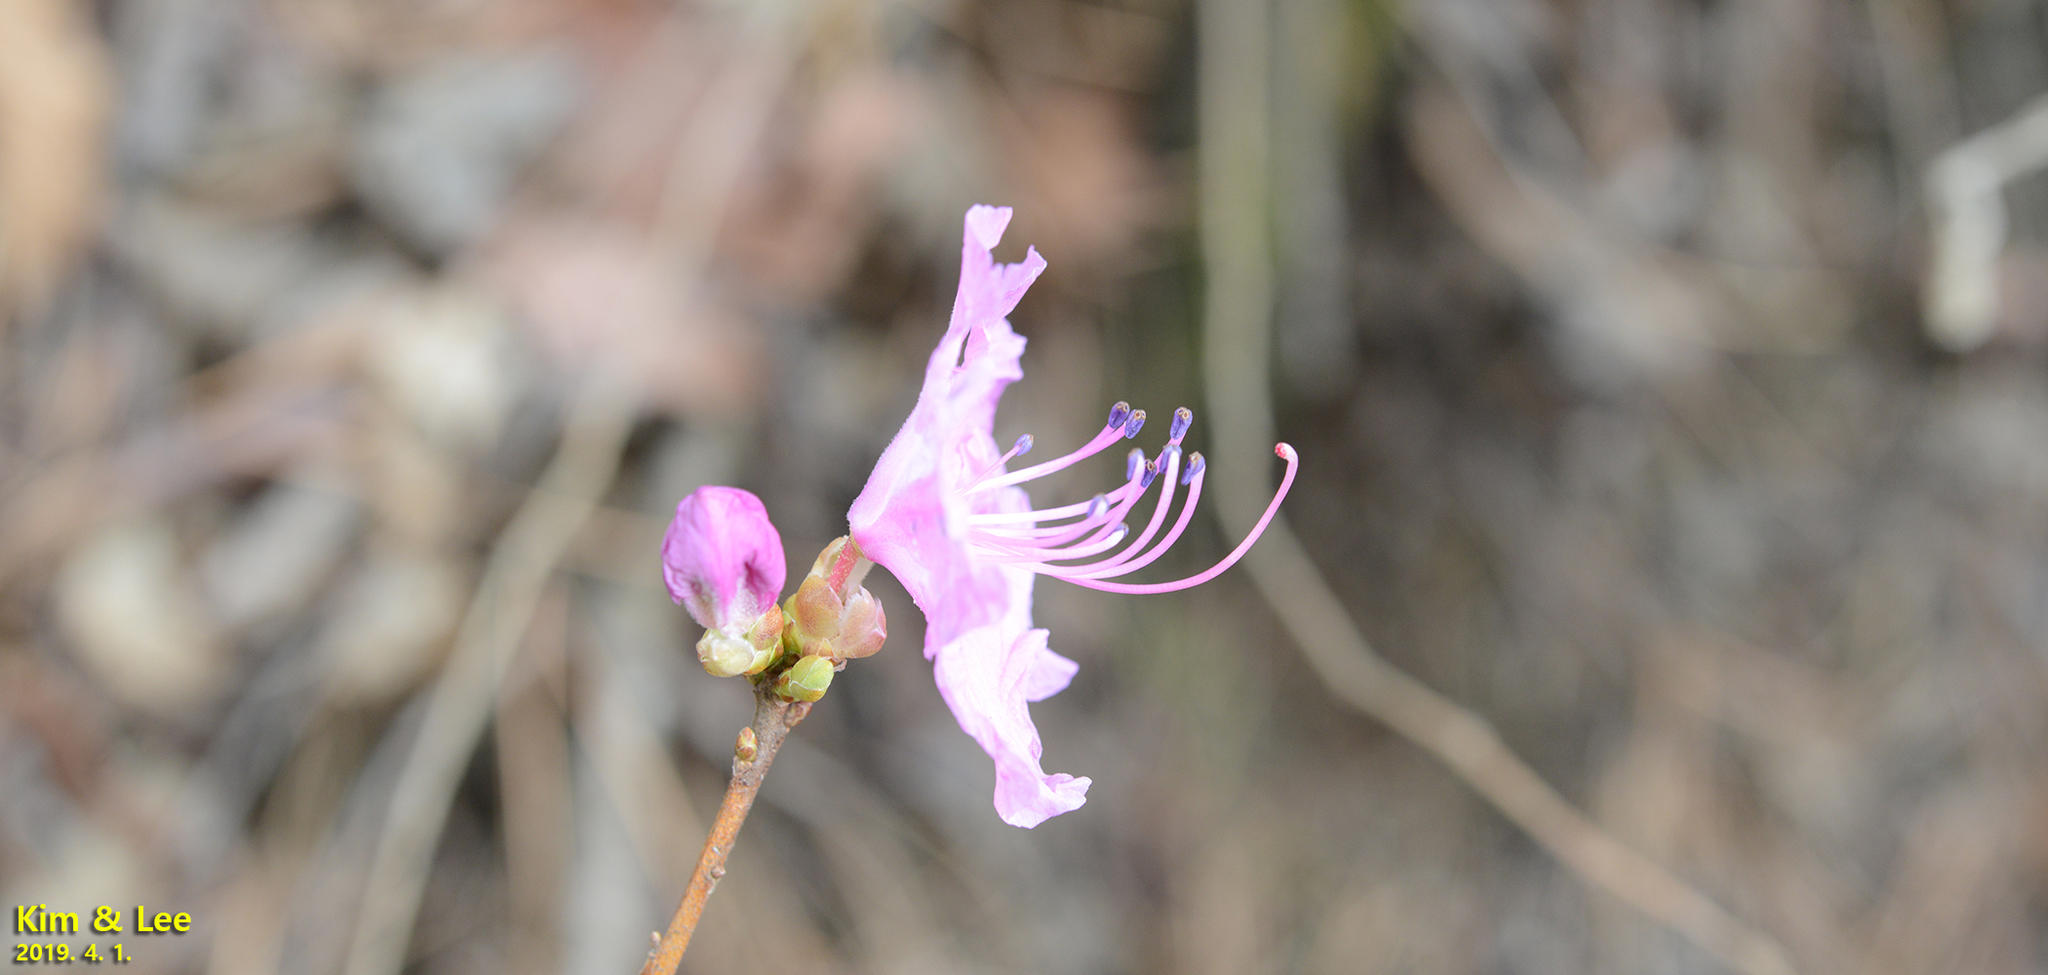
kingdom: Plantae
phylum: Tracheophyta
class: Magnoliopsida
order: Ericales
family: Ericaceae
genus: Rhododendron
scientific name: Rhododendron mucronulatum
